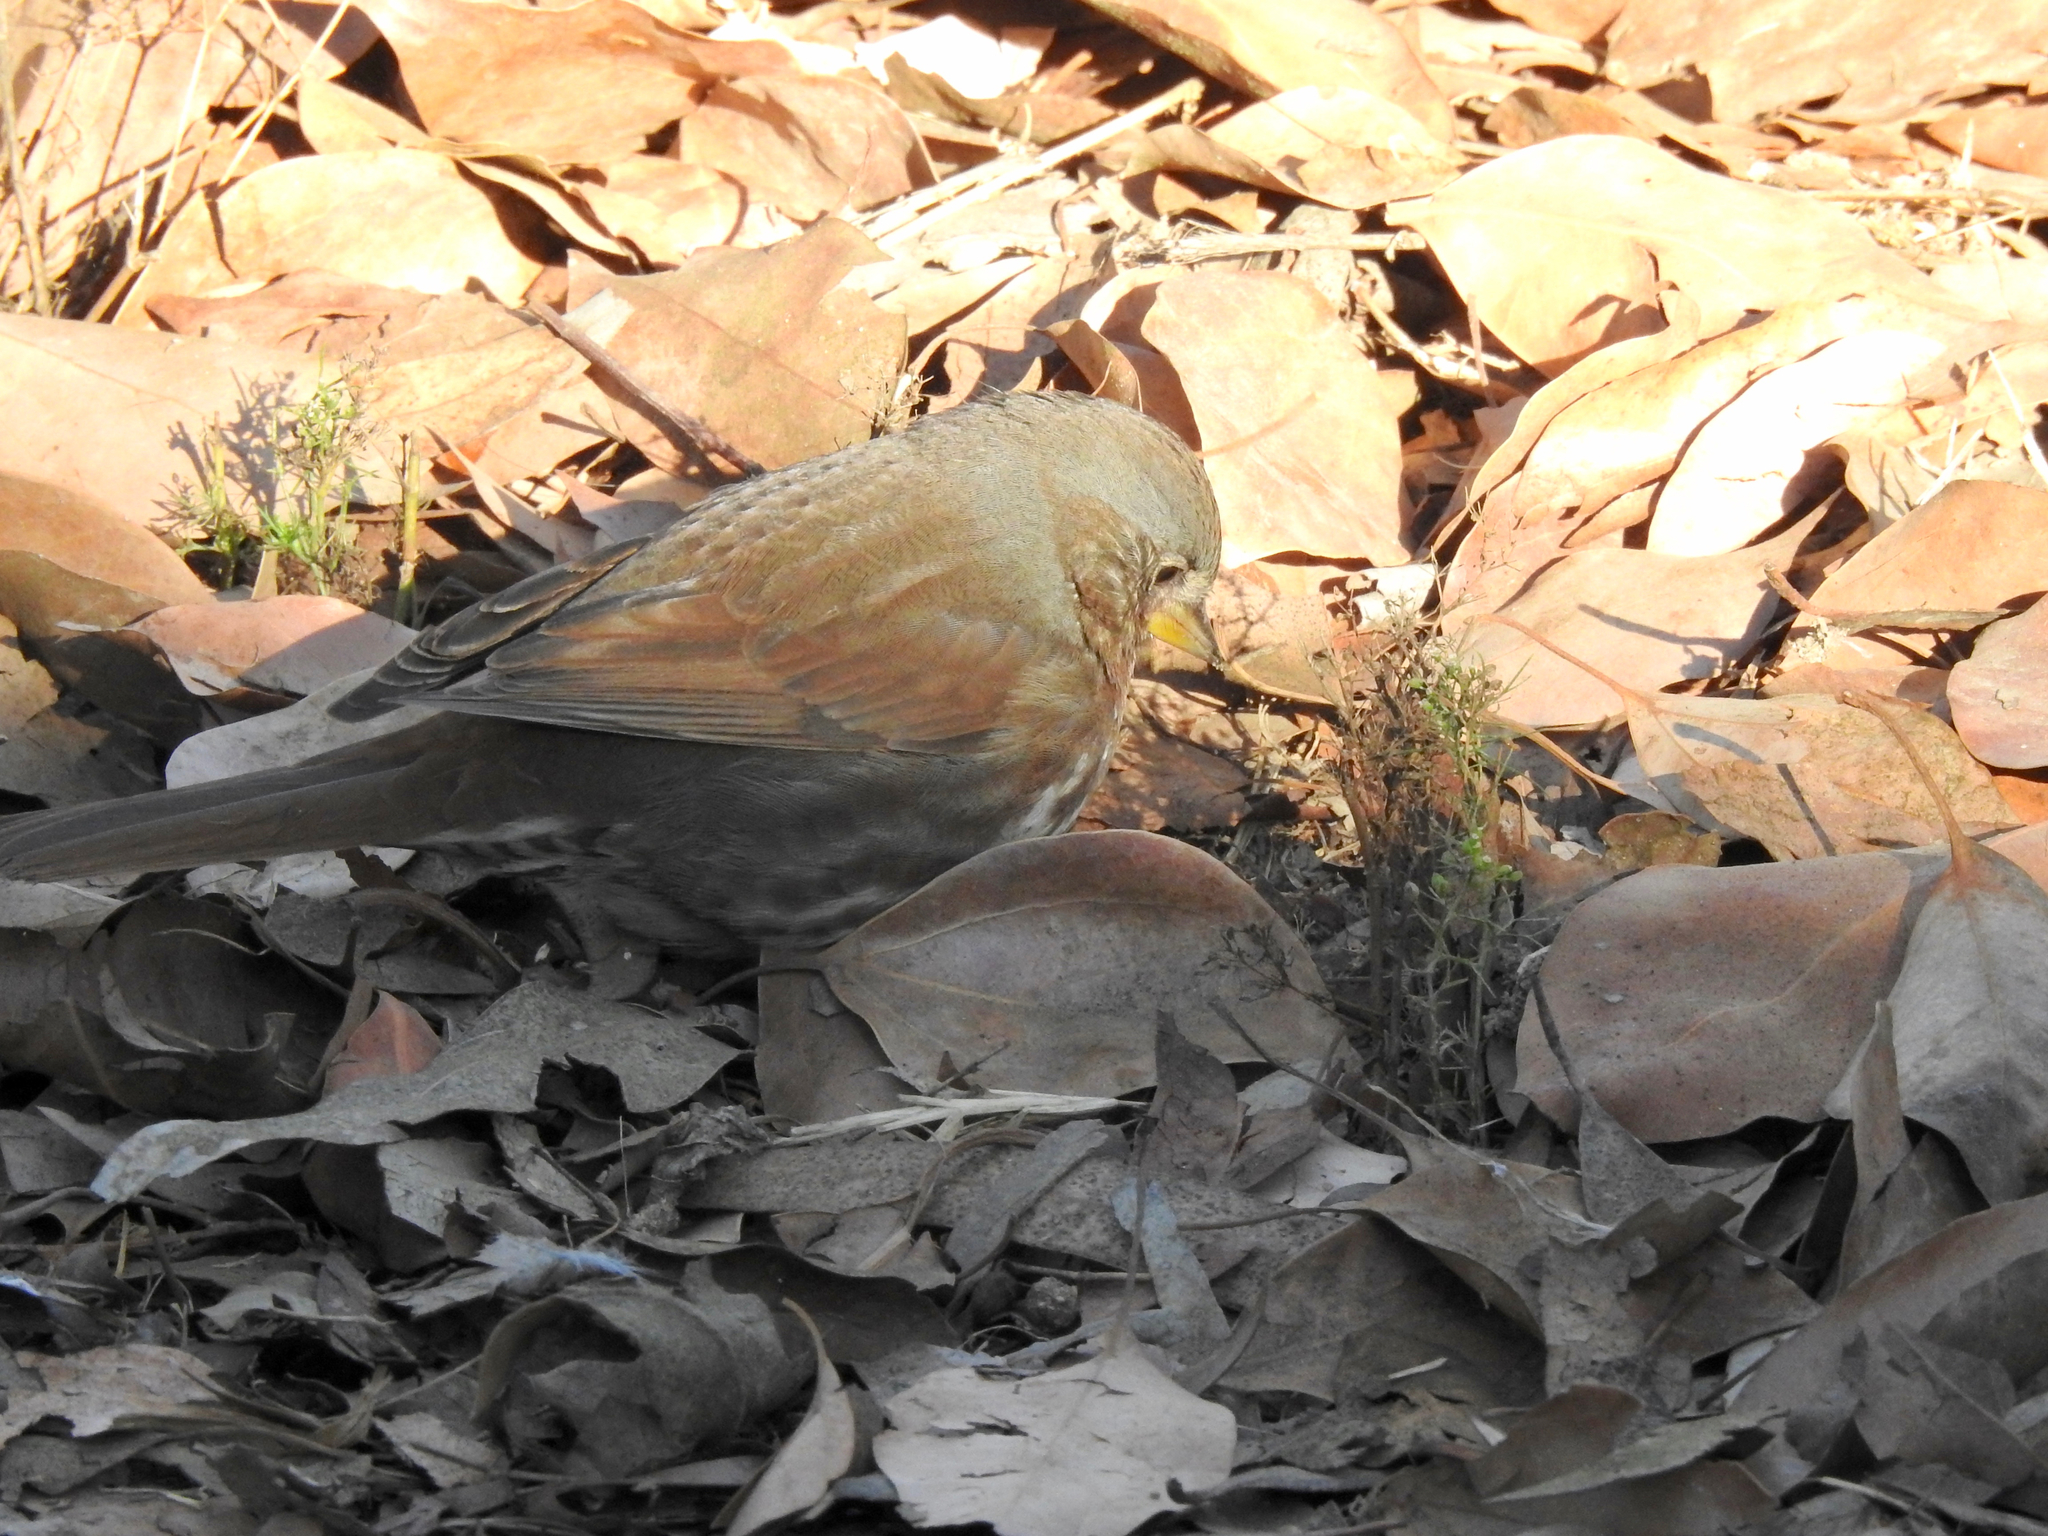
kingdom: Animalia
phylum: Chordata
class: Aves
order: Passeriformes
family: Passerellidae
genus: Passerella
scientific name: Passerella iliaca
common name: Fox sparrow
